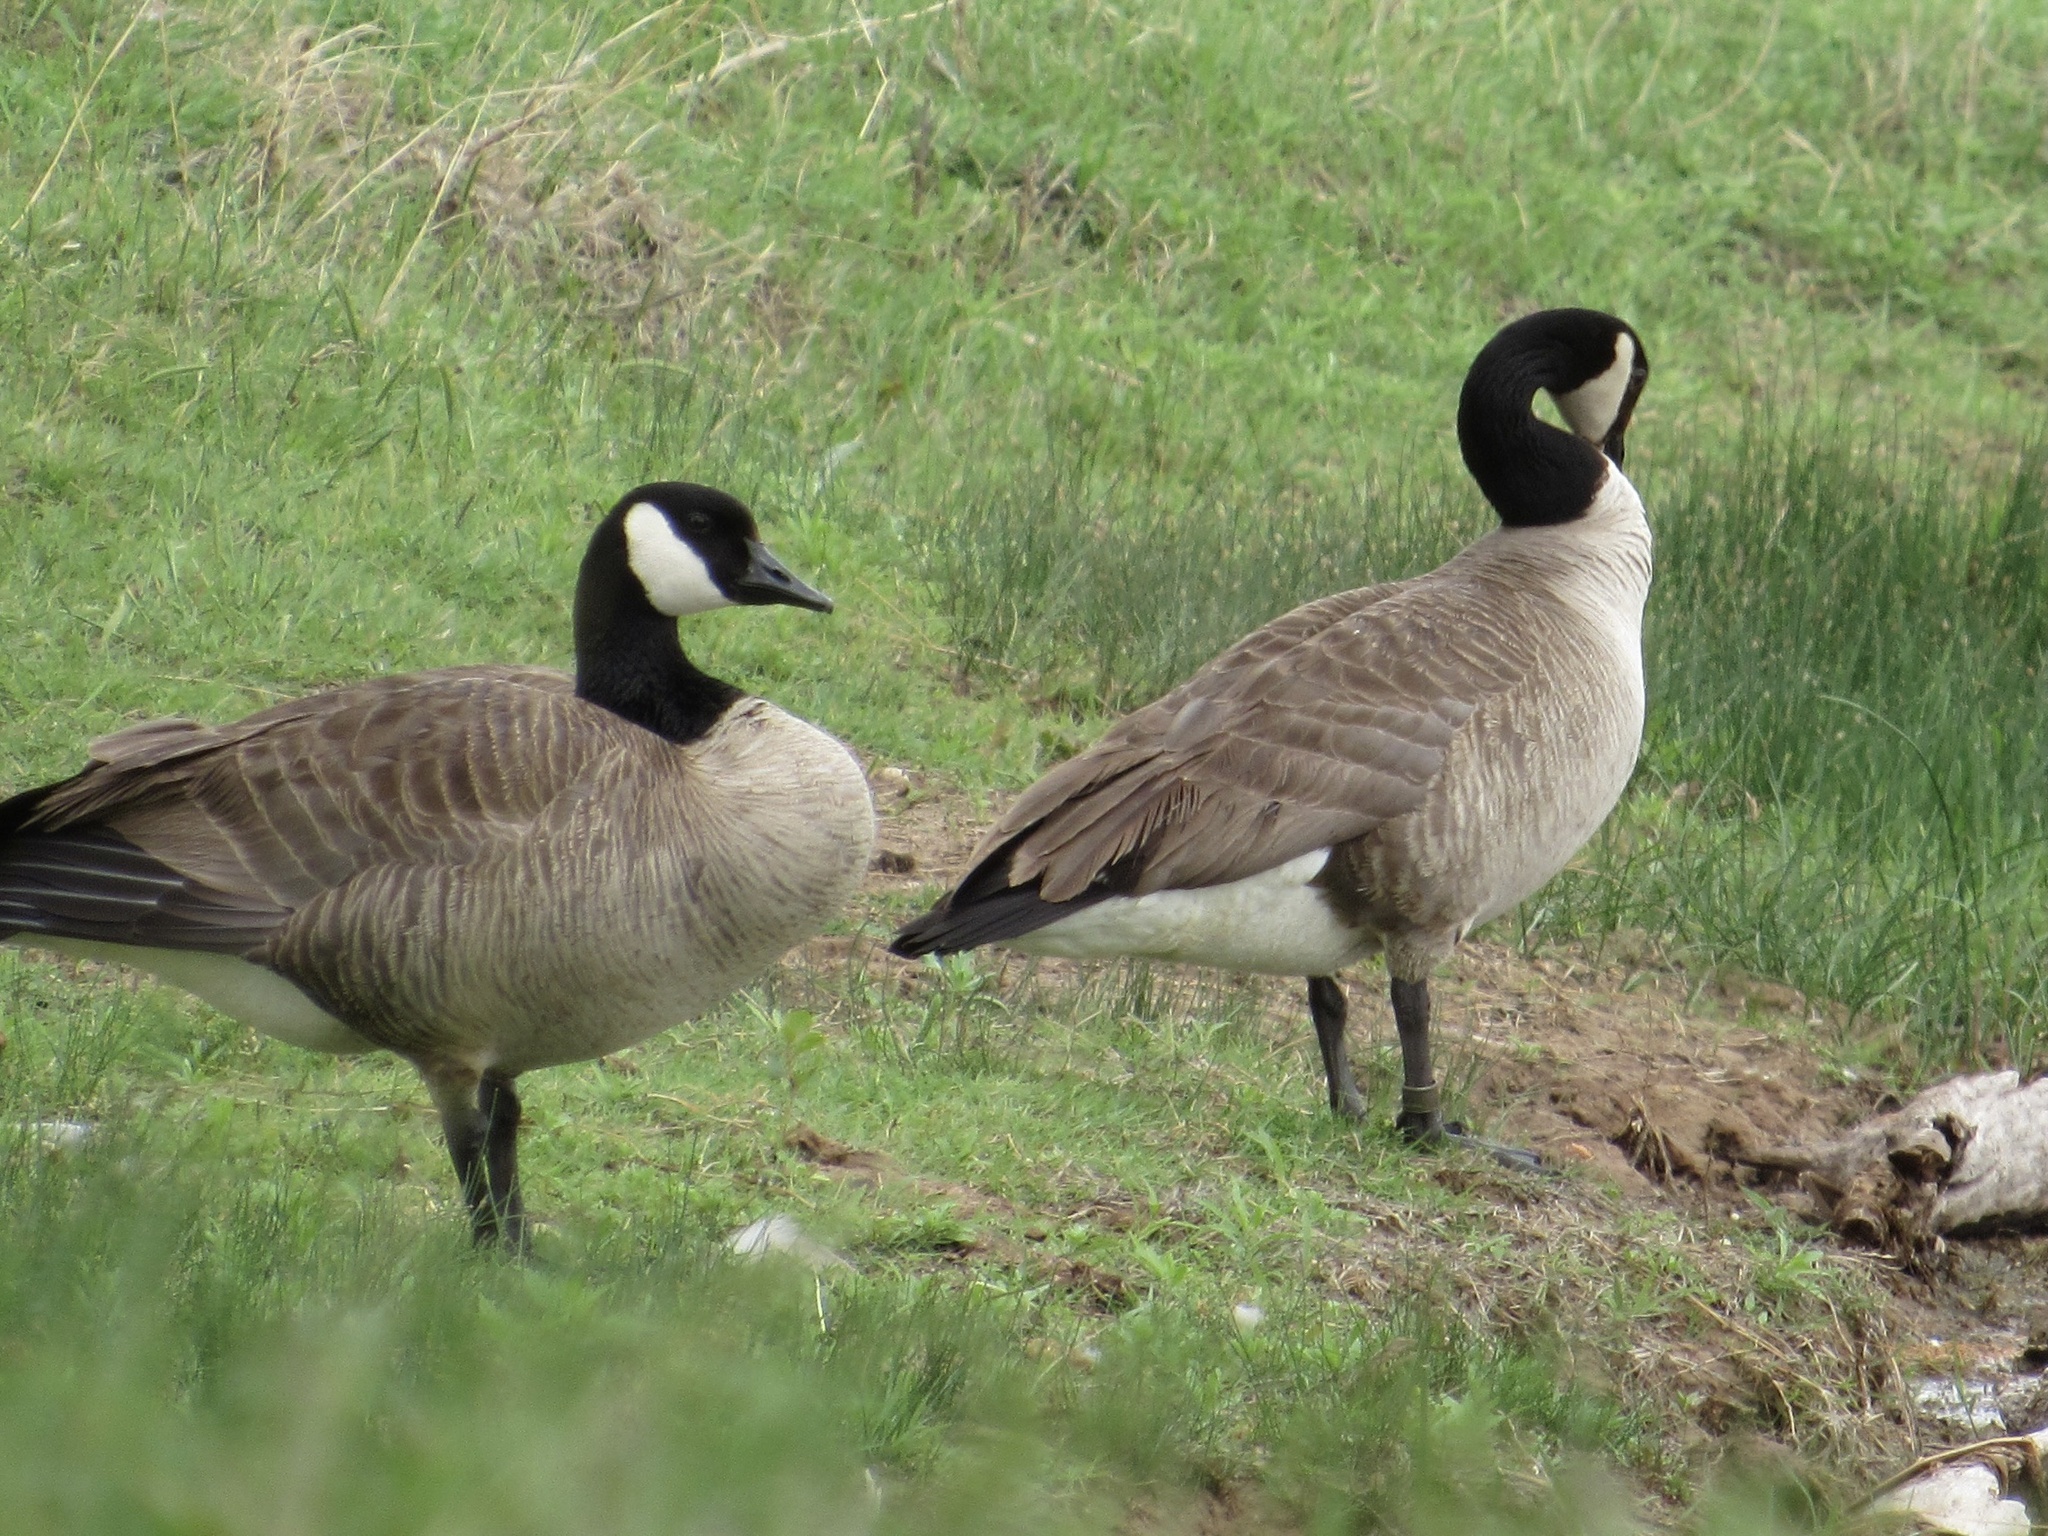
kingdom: Animalia
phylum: Chordata
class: Aves
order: Anseriformes
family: Anatidae
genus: Branta
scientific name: Branta canadensis
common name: Canada goose
